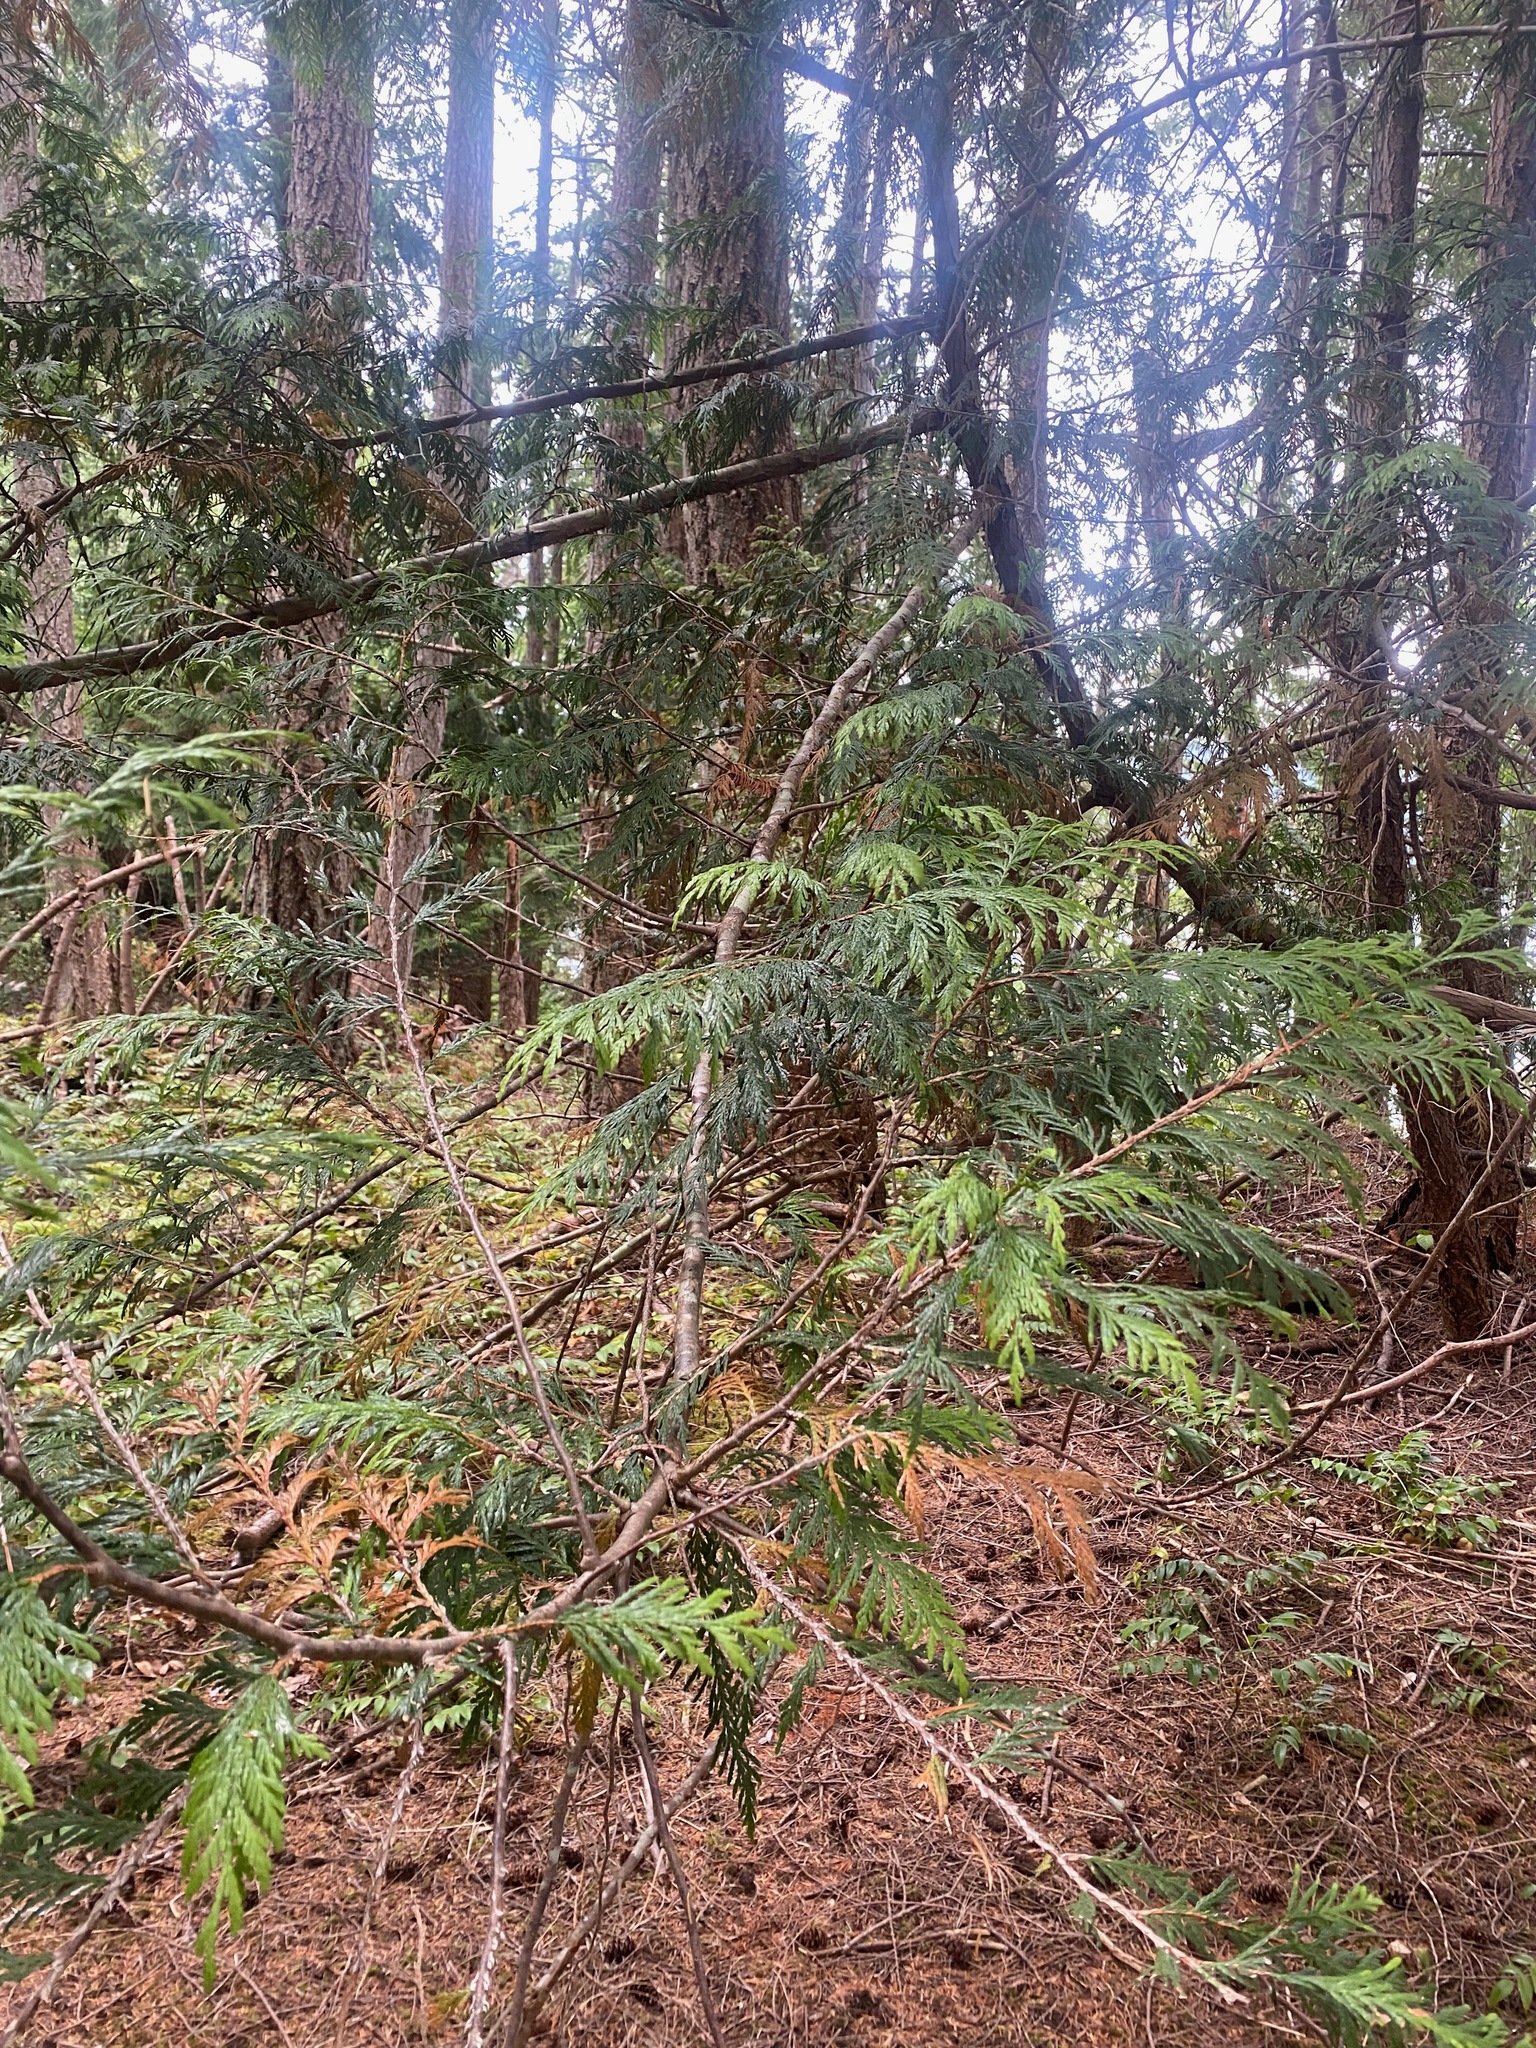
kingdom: Plantae
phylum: Tracheophyta
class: Pinopsida
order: Pinales
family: Cupressaceae
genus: Thuja
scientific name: Thuja plicata
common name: Western red-cedar
